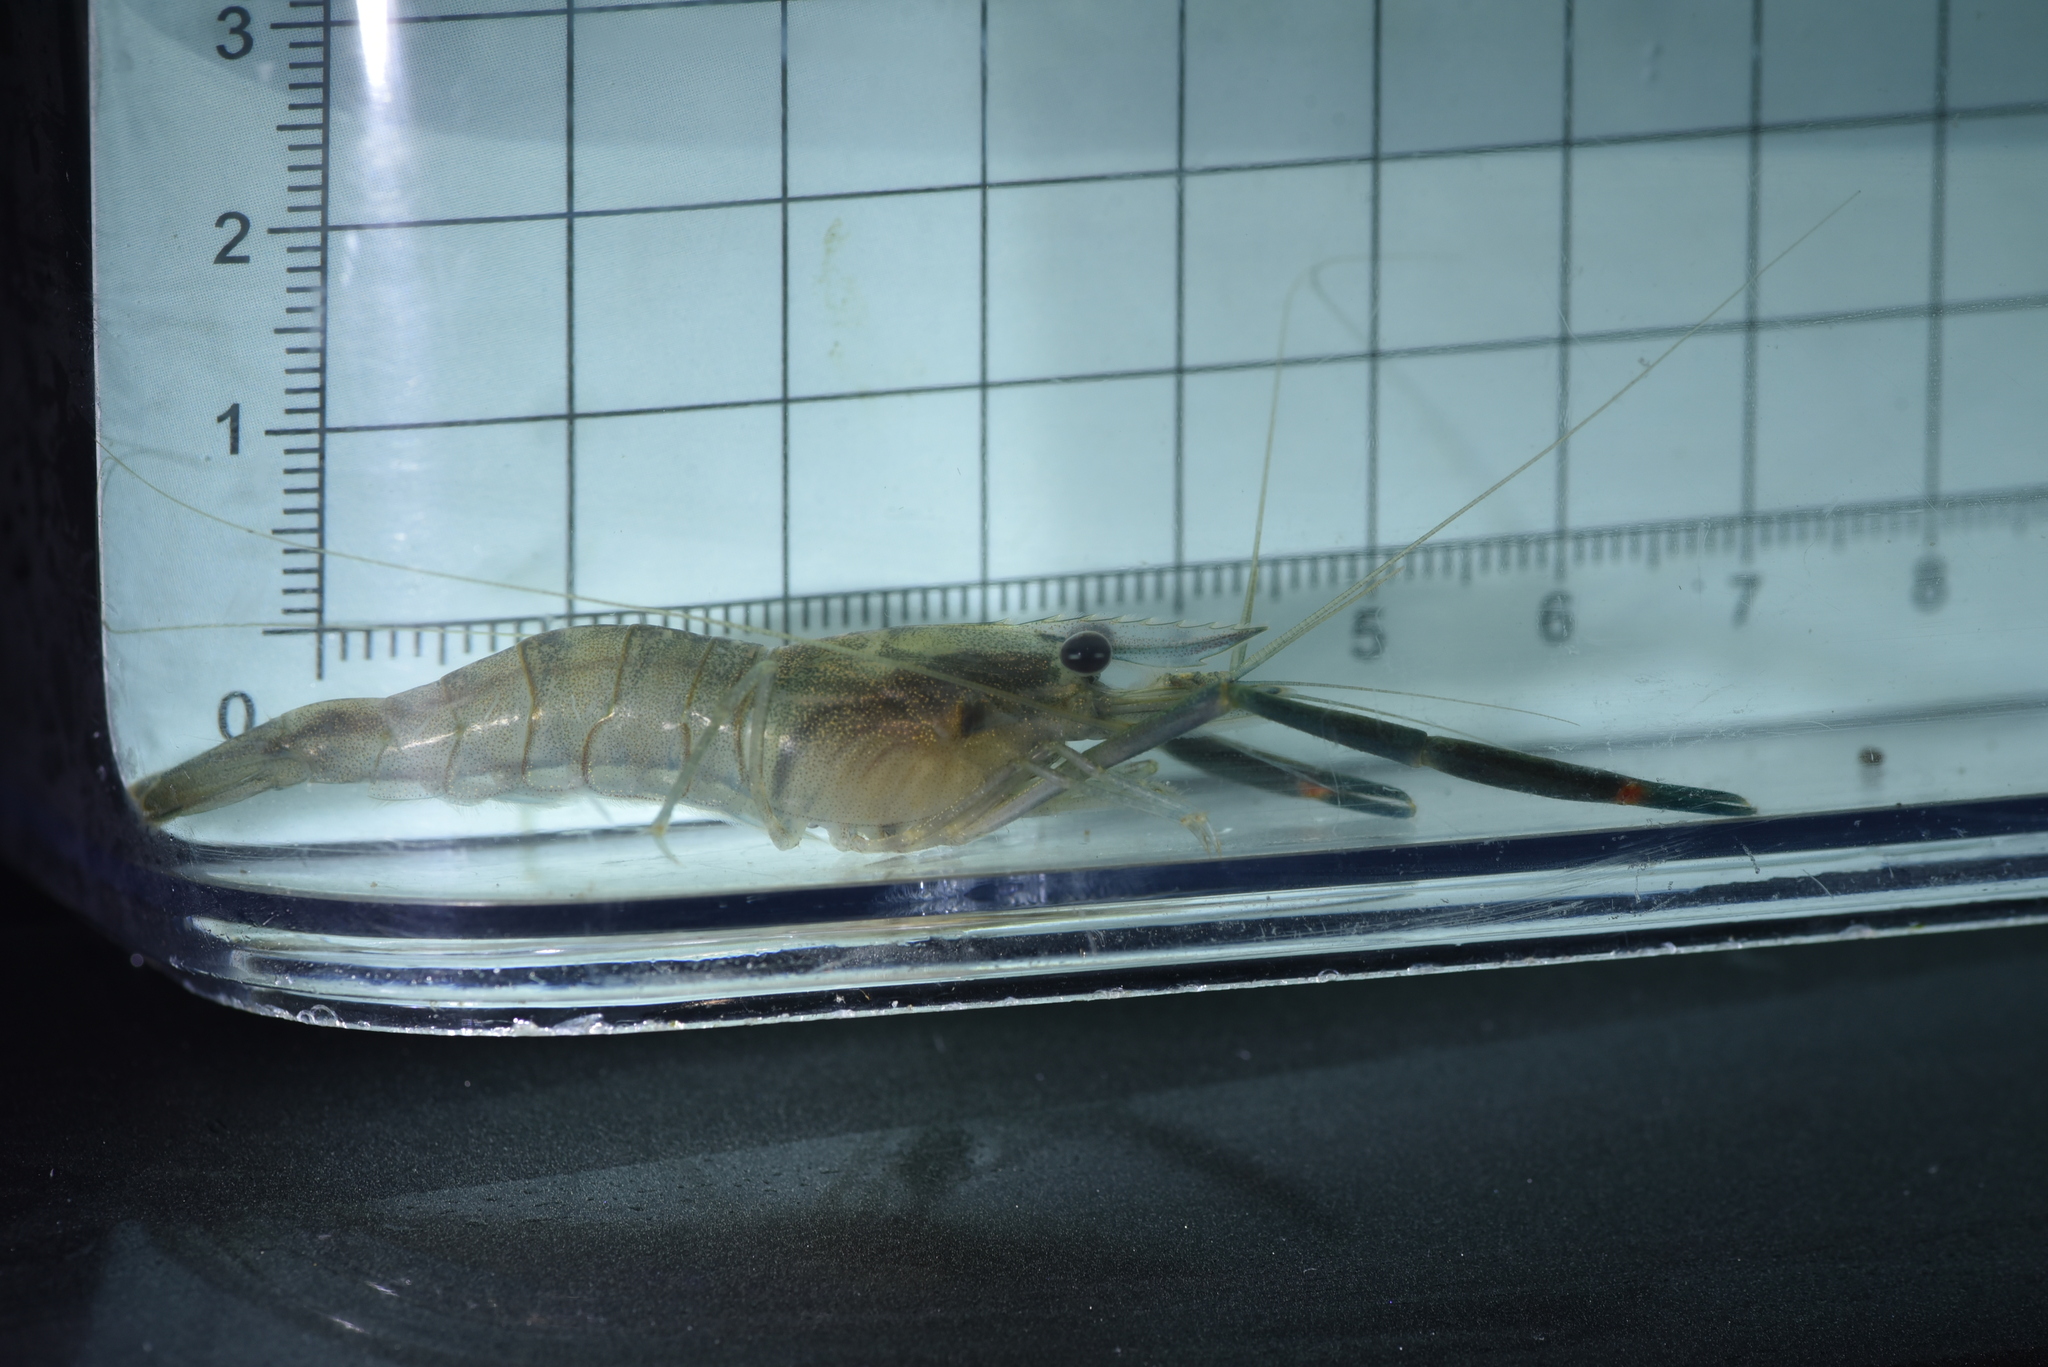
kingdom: Animalia
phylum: Arthropoda
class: Malacostraca
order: Decapoda
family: Palaemonidae
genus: Macrobrachium
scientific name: Macrobrachium asperulum
